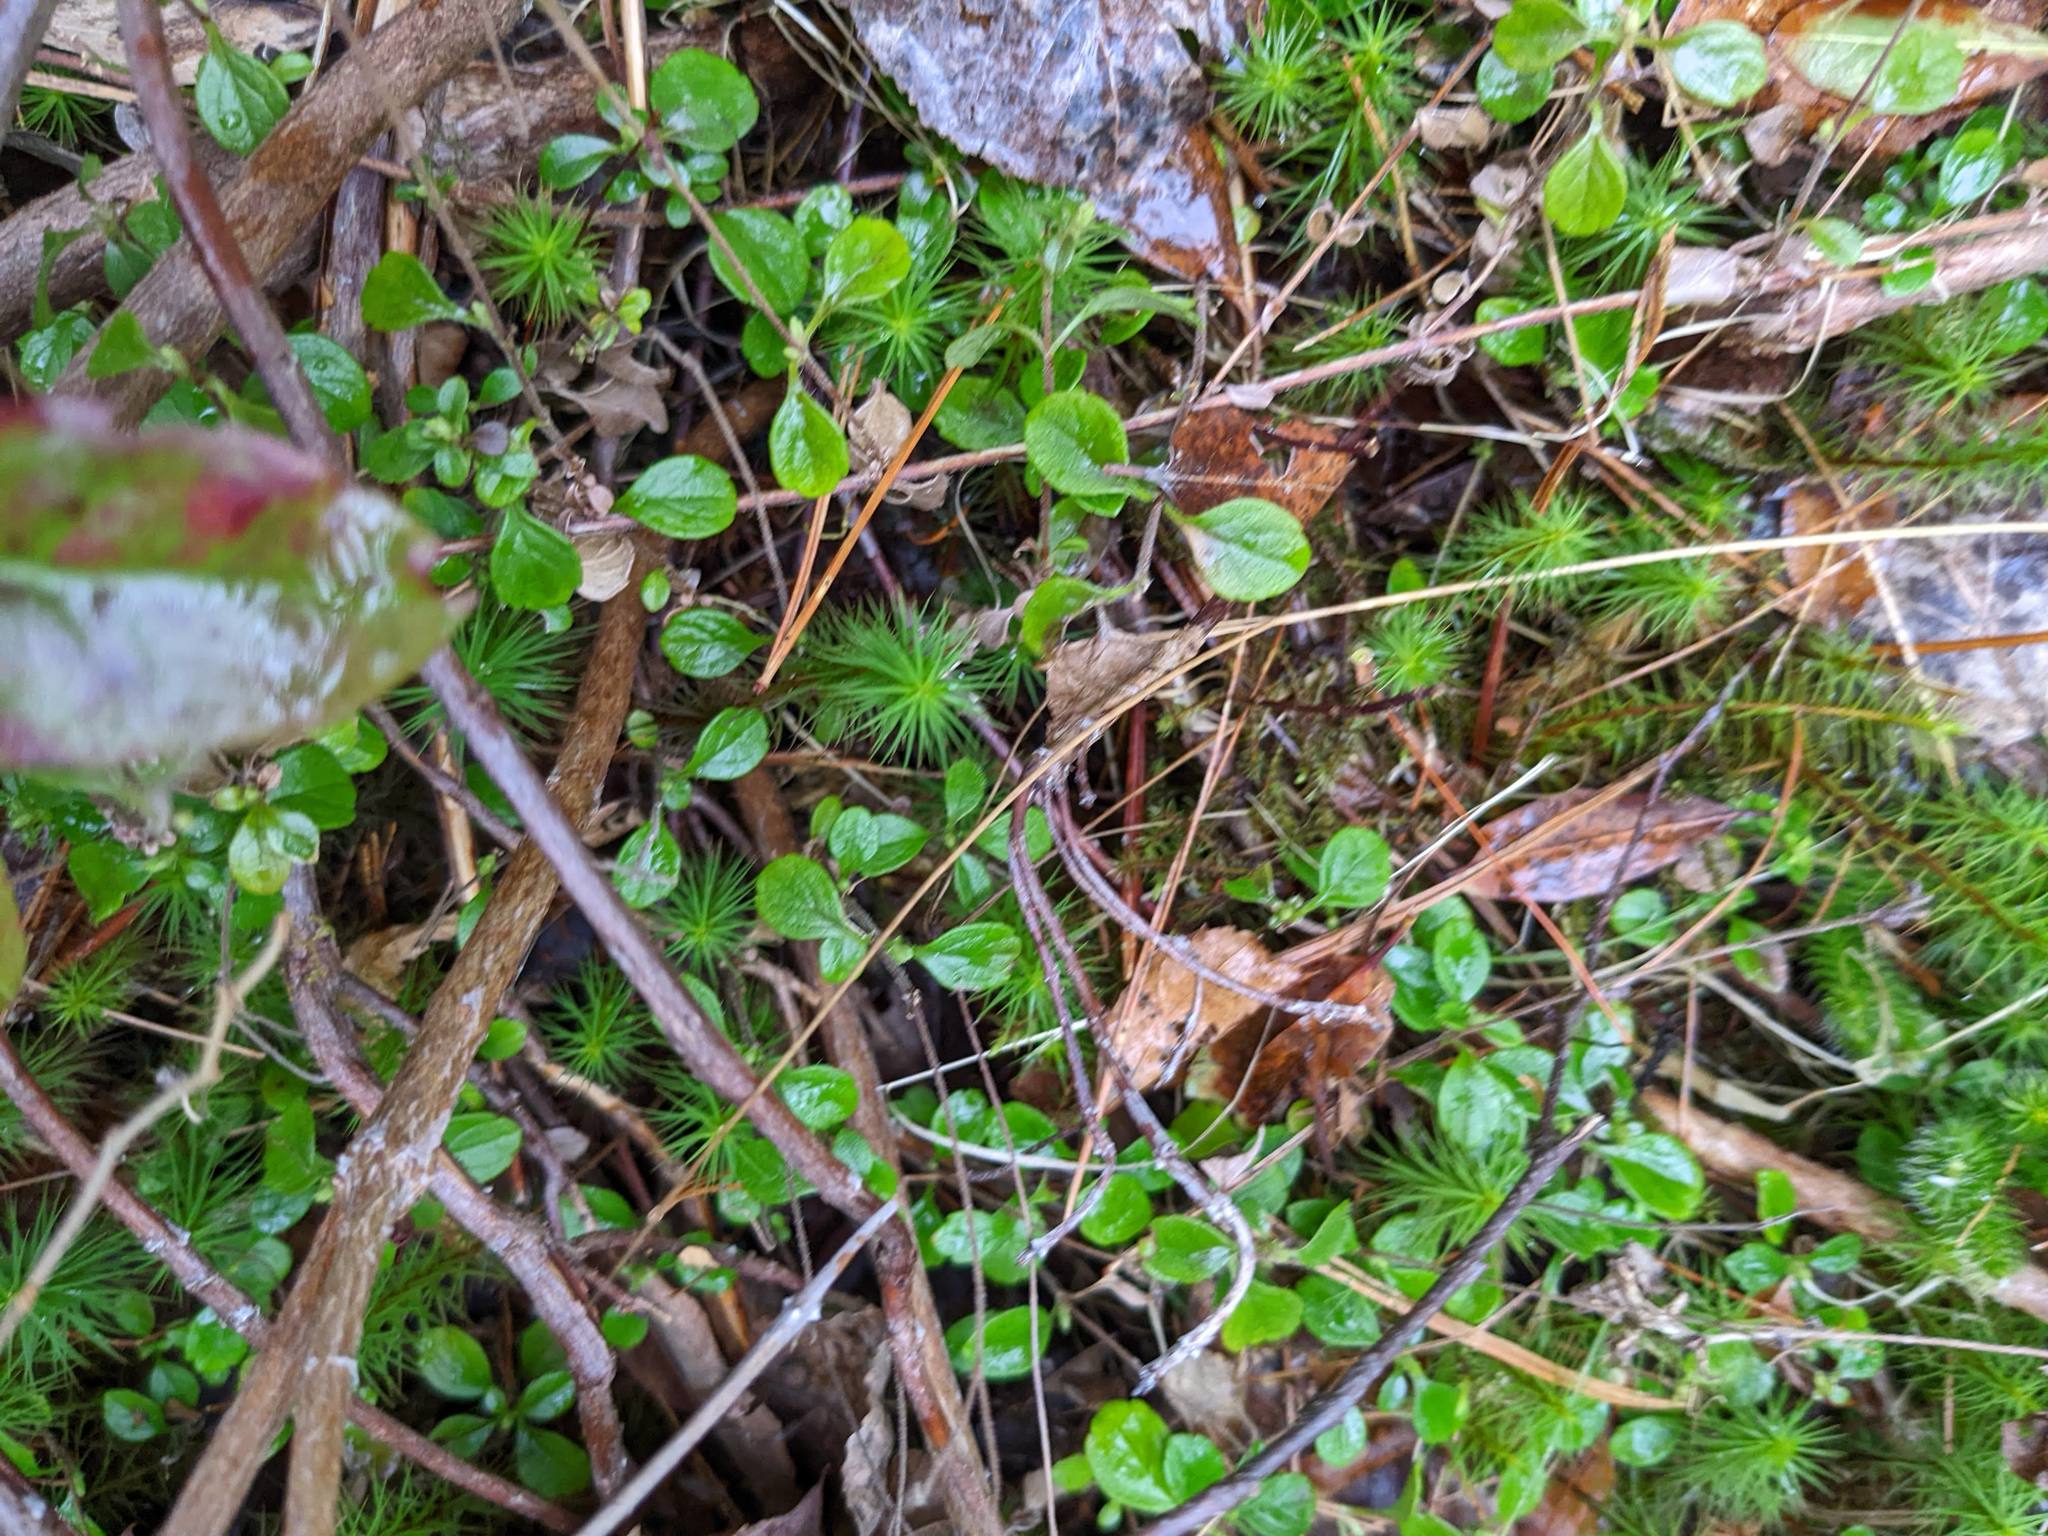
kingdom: Plantae
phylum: Tracheophyta
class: Magnoliopsida
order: Dipsacales
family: Caprifoliaceae
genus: Linnaea
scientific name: Linnaea borealis
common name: Twinflower
